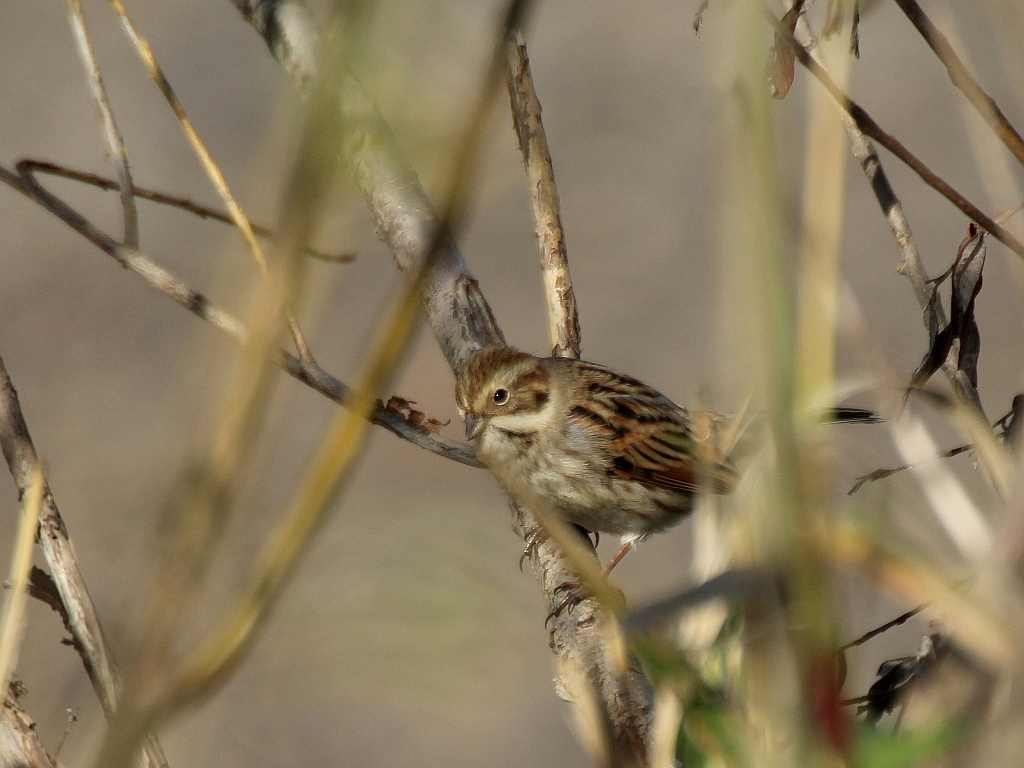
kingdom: Animalia
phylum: Chordata
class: Aves
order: Passeriformes
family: Emberizidae
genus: Emberiza
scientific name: Emberiza schoeniclus
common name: Reed bunting
